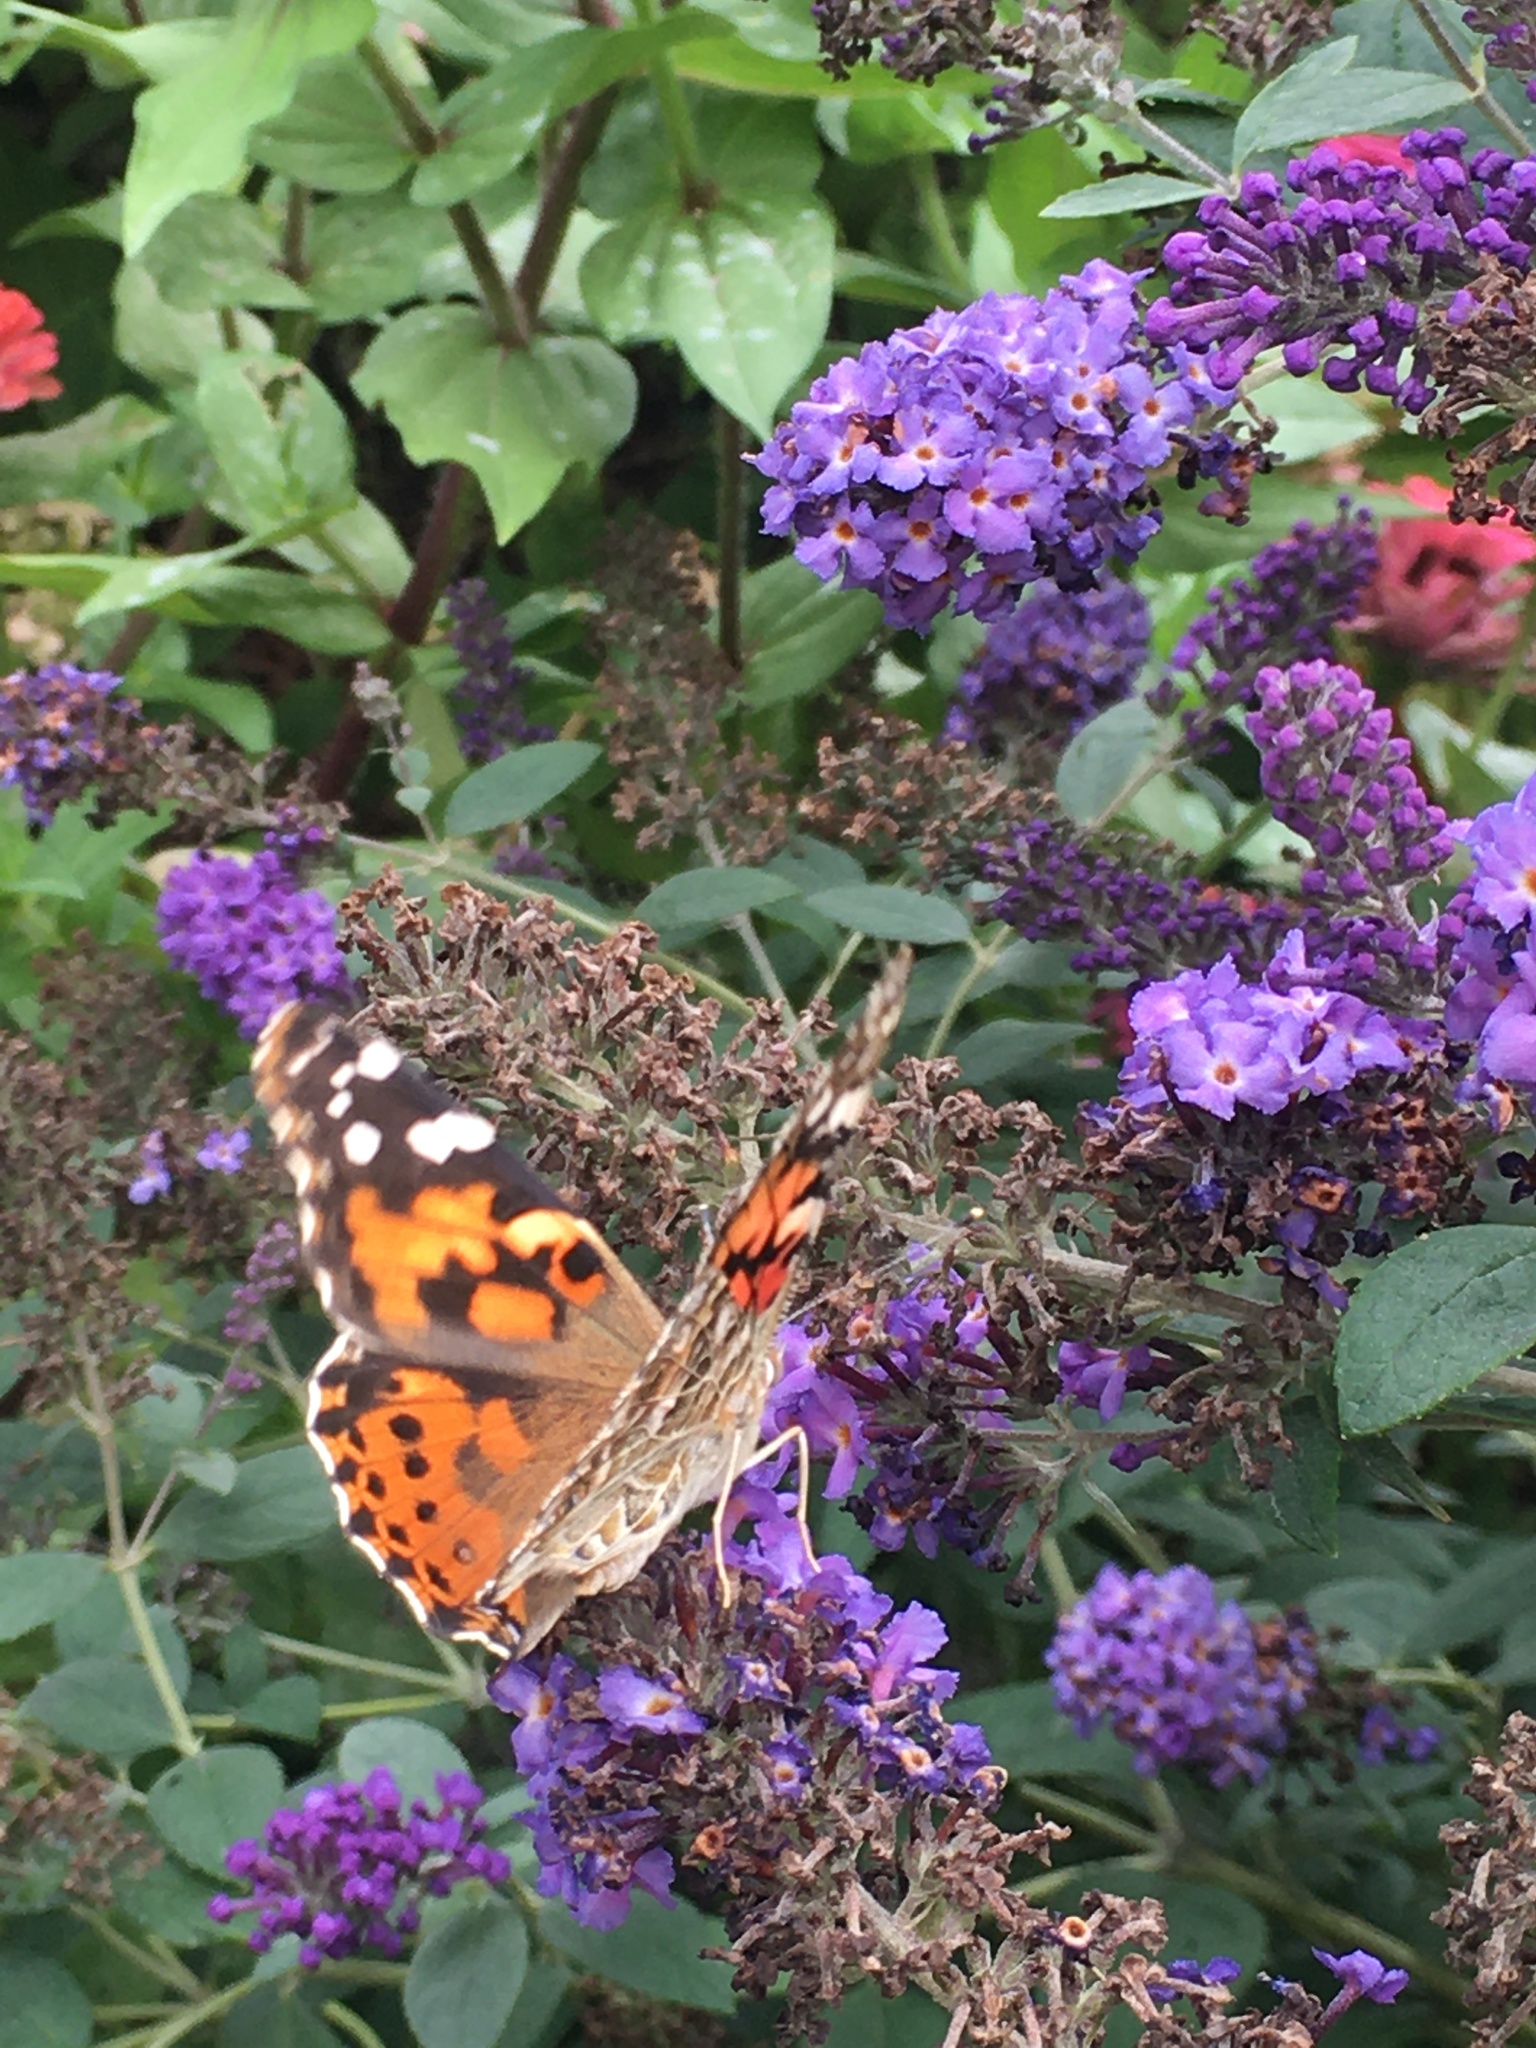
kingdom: Animalia
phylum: Arthropoda
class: Insecta
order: Lepidoptera
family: Nymphalidae
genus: Vanessa
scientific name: Vanessa cardui
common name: Painted lady
